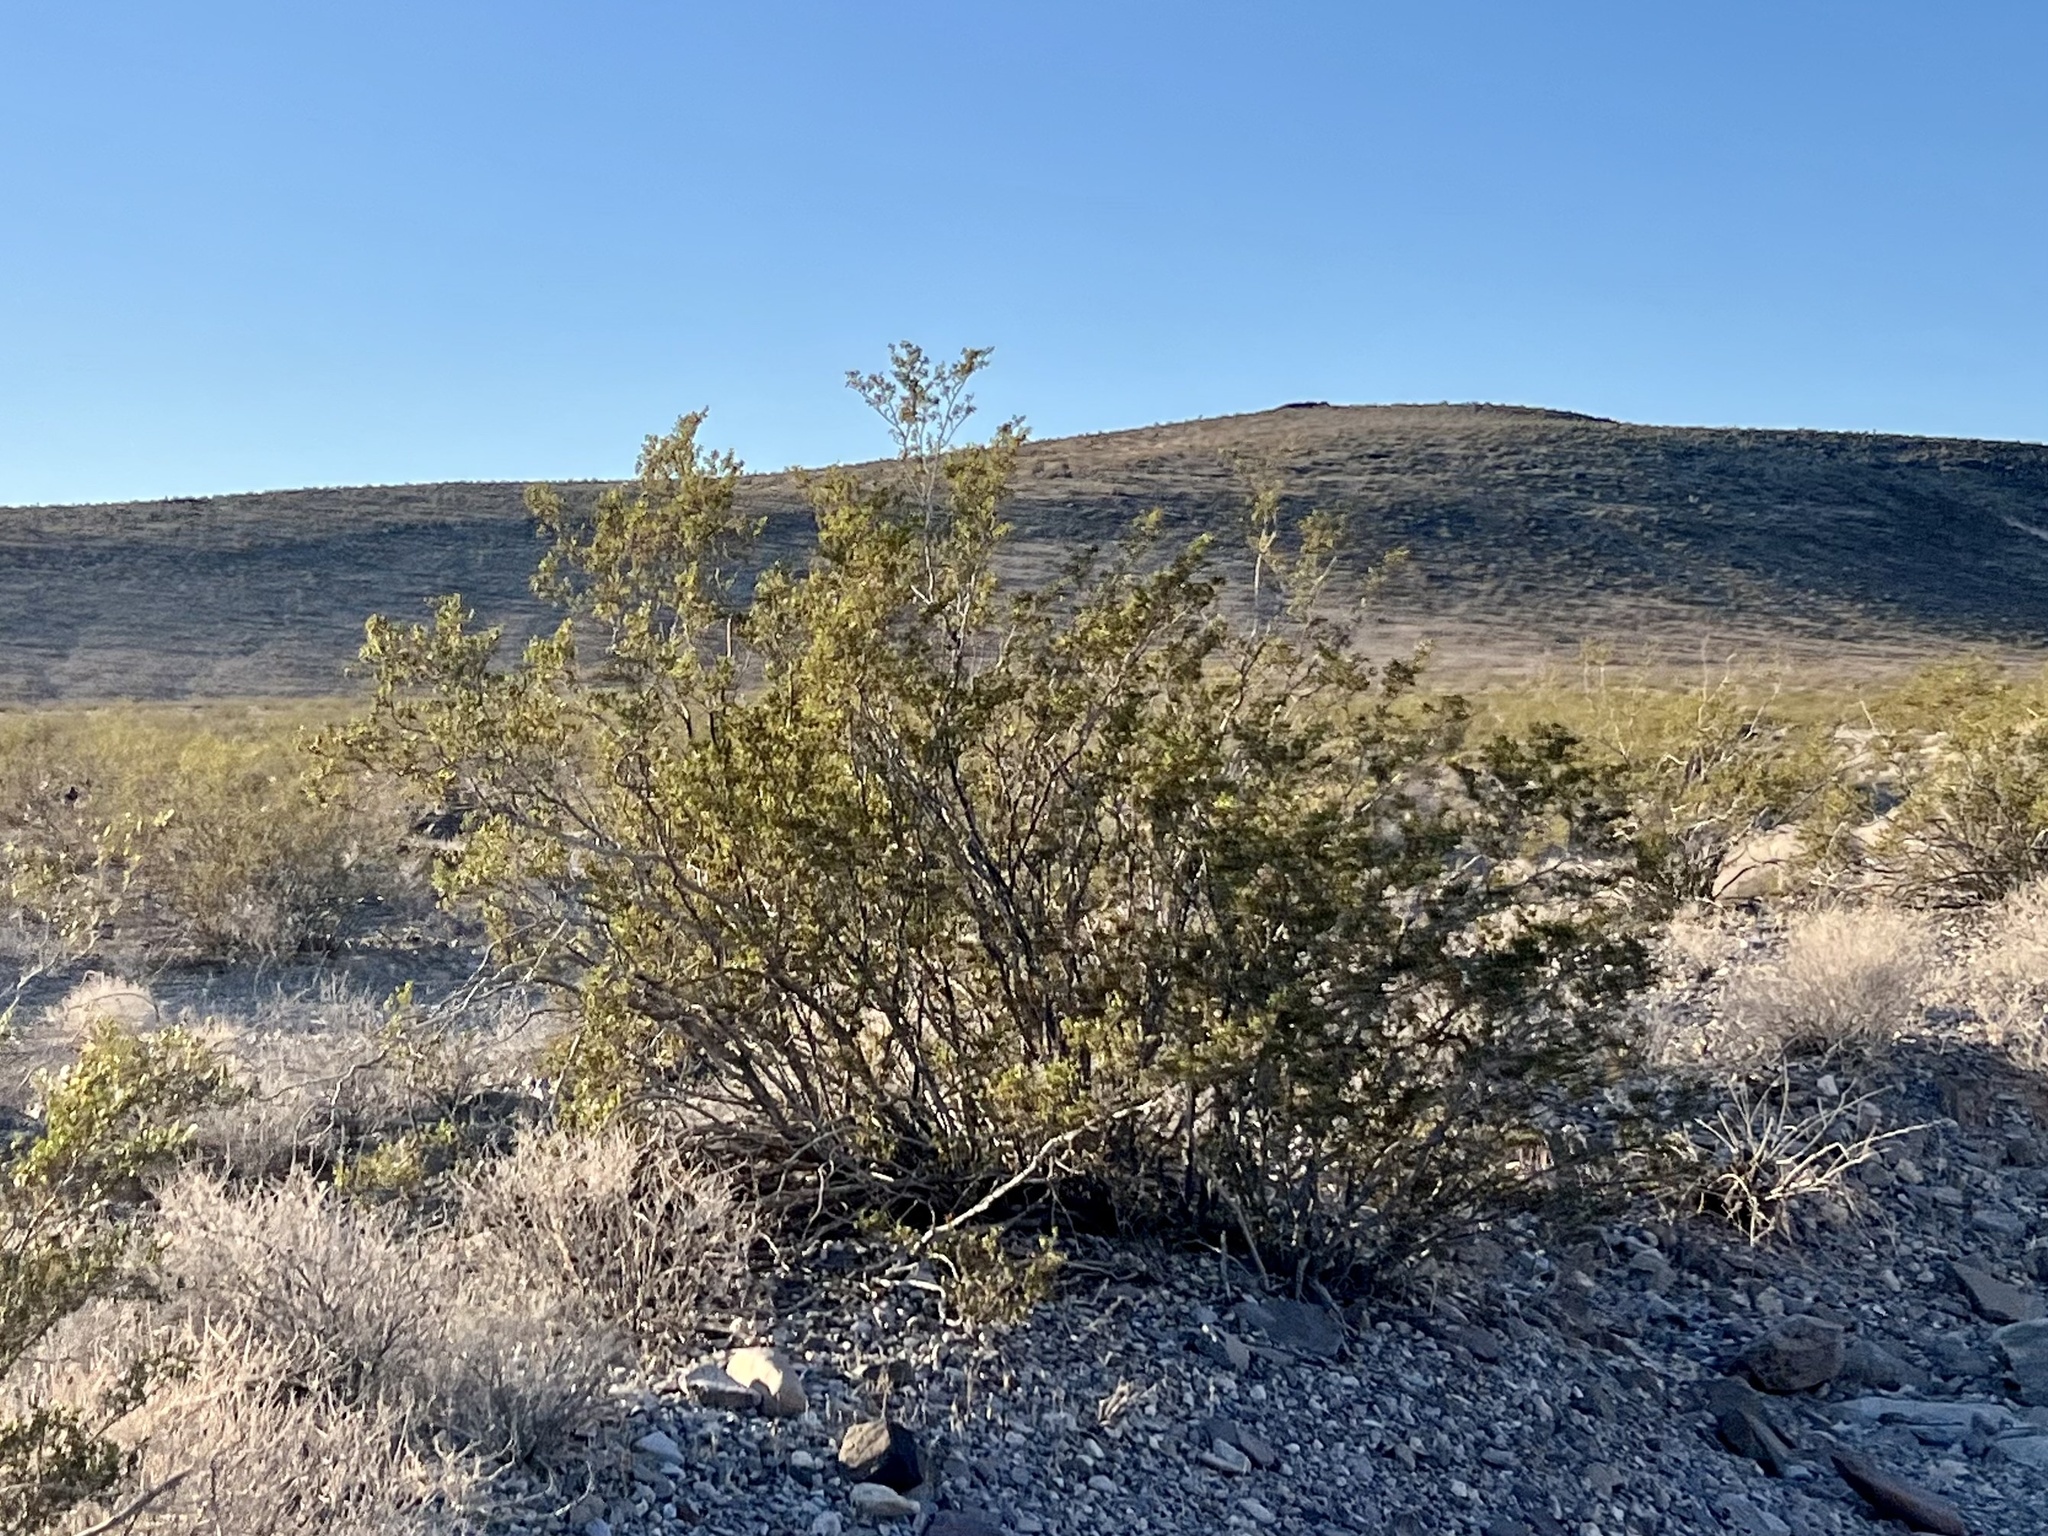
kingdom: Plantae
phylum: Tracheophyta
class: Magnoliopsida
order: Zygophyllales
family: Zygophyllaceae
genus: Larrea
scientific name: Larrea tridentata
